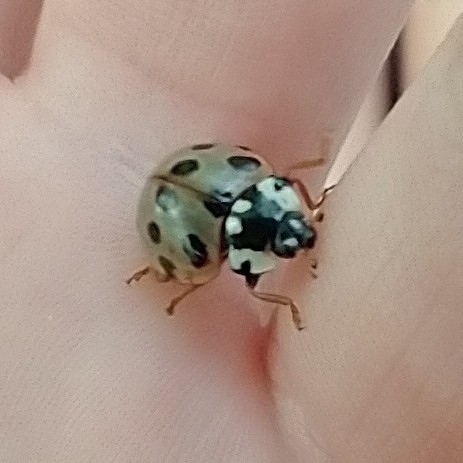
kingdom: Animalia
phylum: Arthropoda
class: Insecta
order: Coleoptera
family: Coccinellidae
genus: Anatis
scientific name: Anatis labiculata
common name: Fifteen-spotted lady beetle
